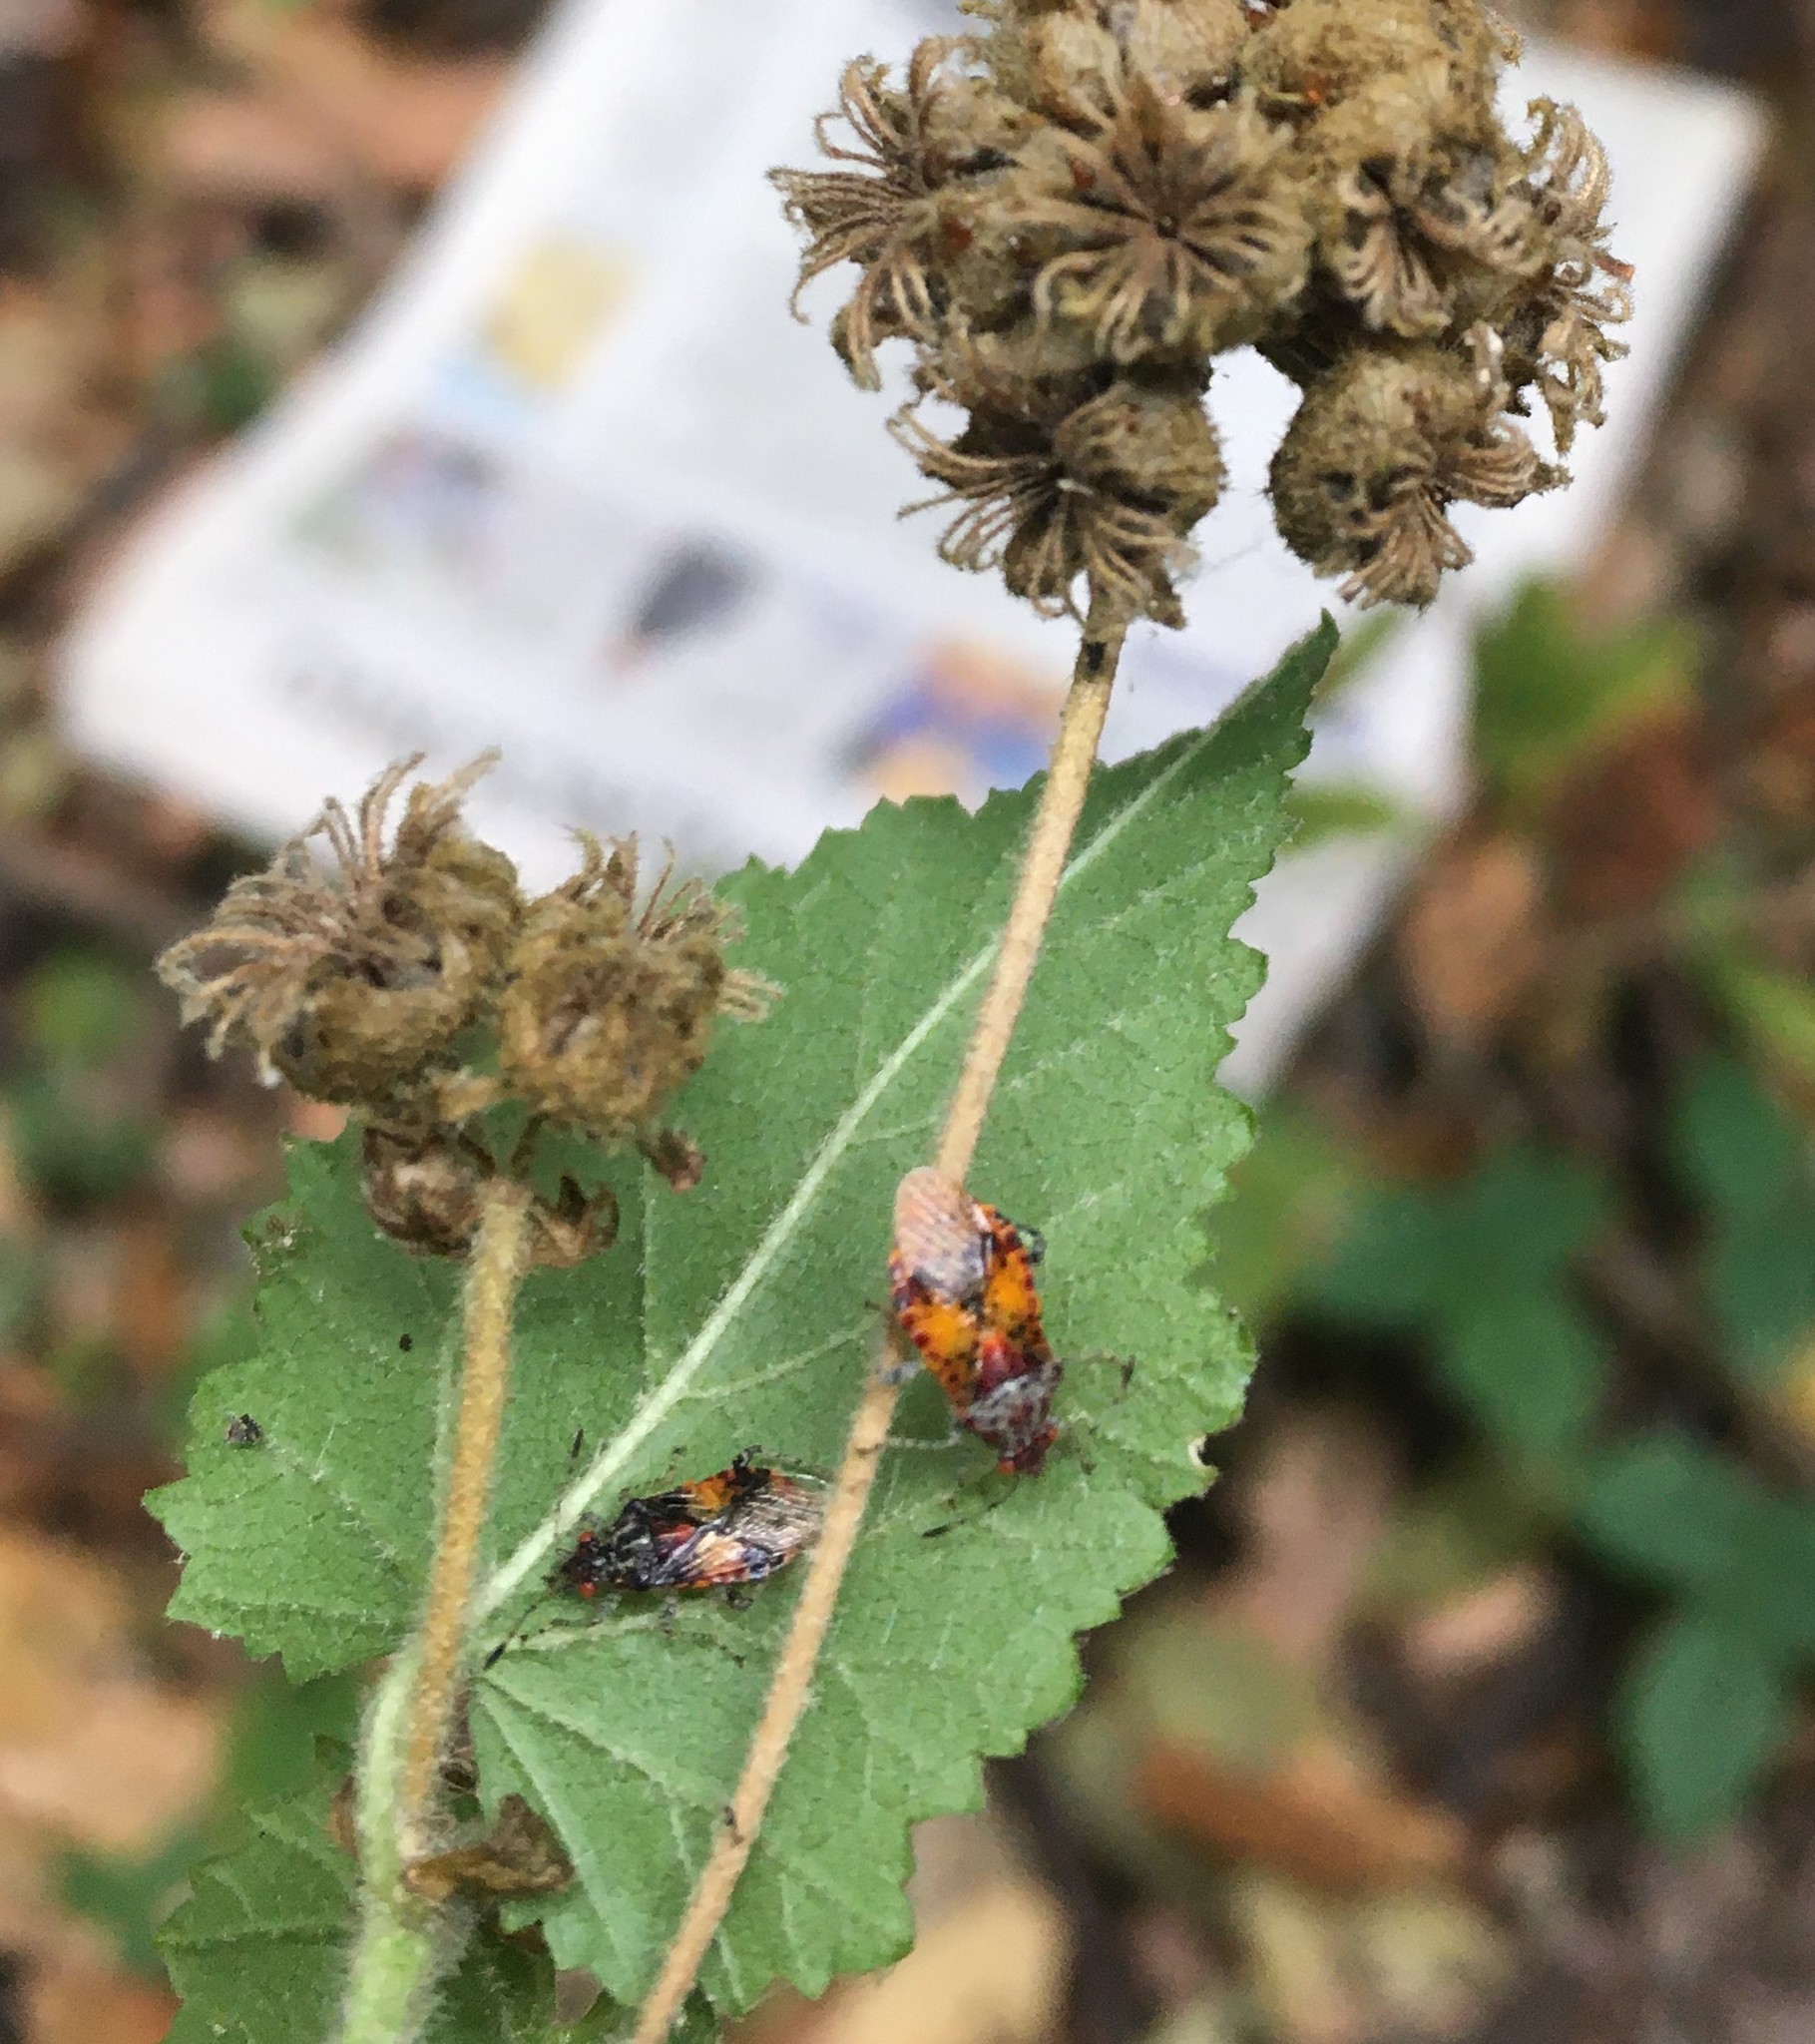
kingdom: Animalia
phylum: Arthropoda
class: Insecta
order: Hemiptera
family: Rhopalidae
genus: Niesthrea
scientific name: Niesthrea fenestrata
